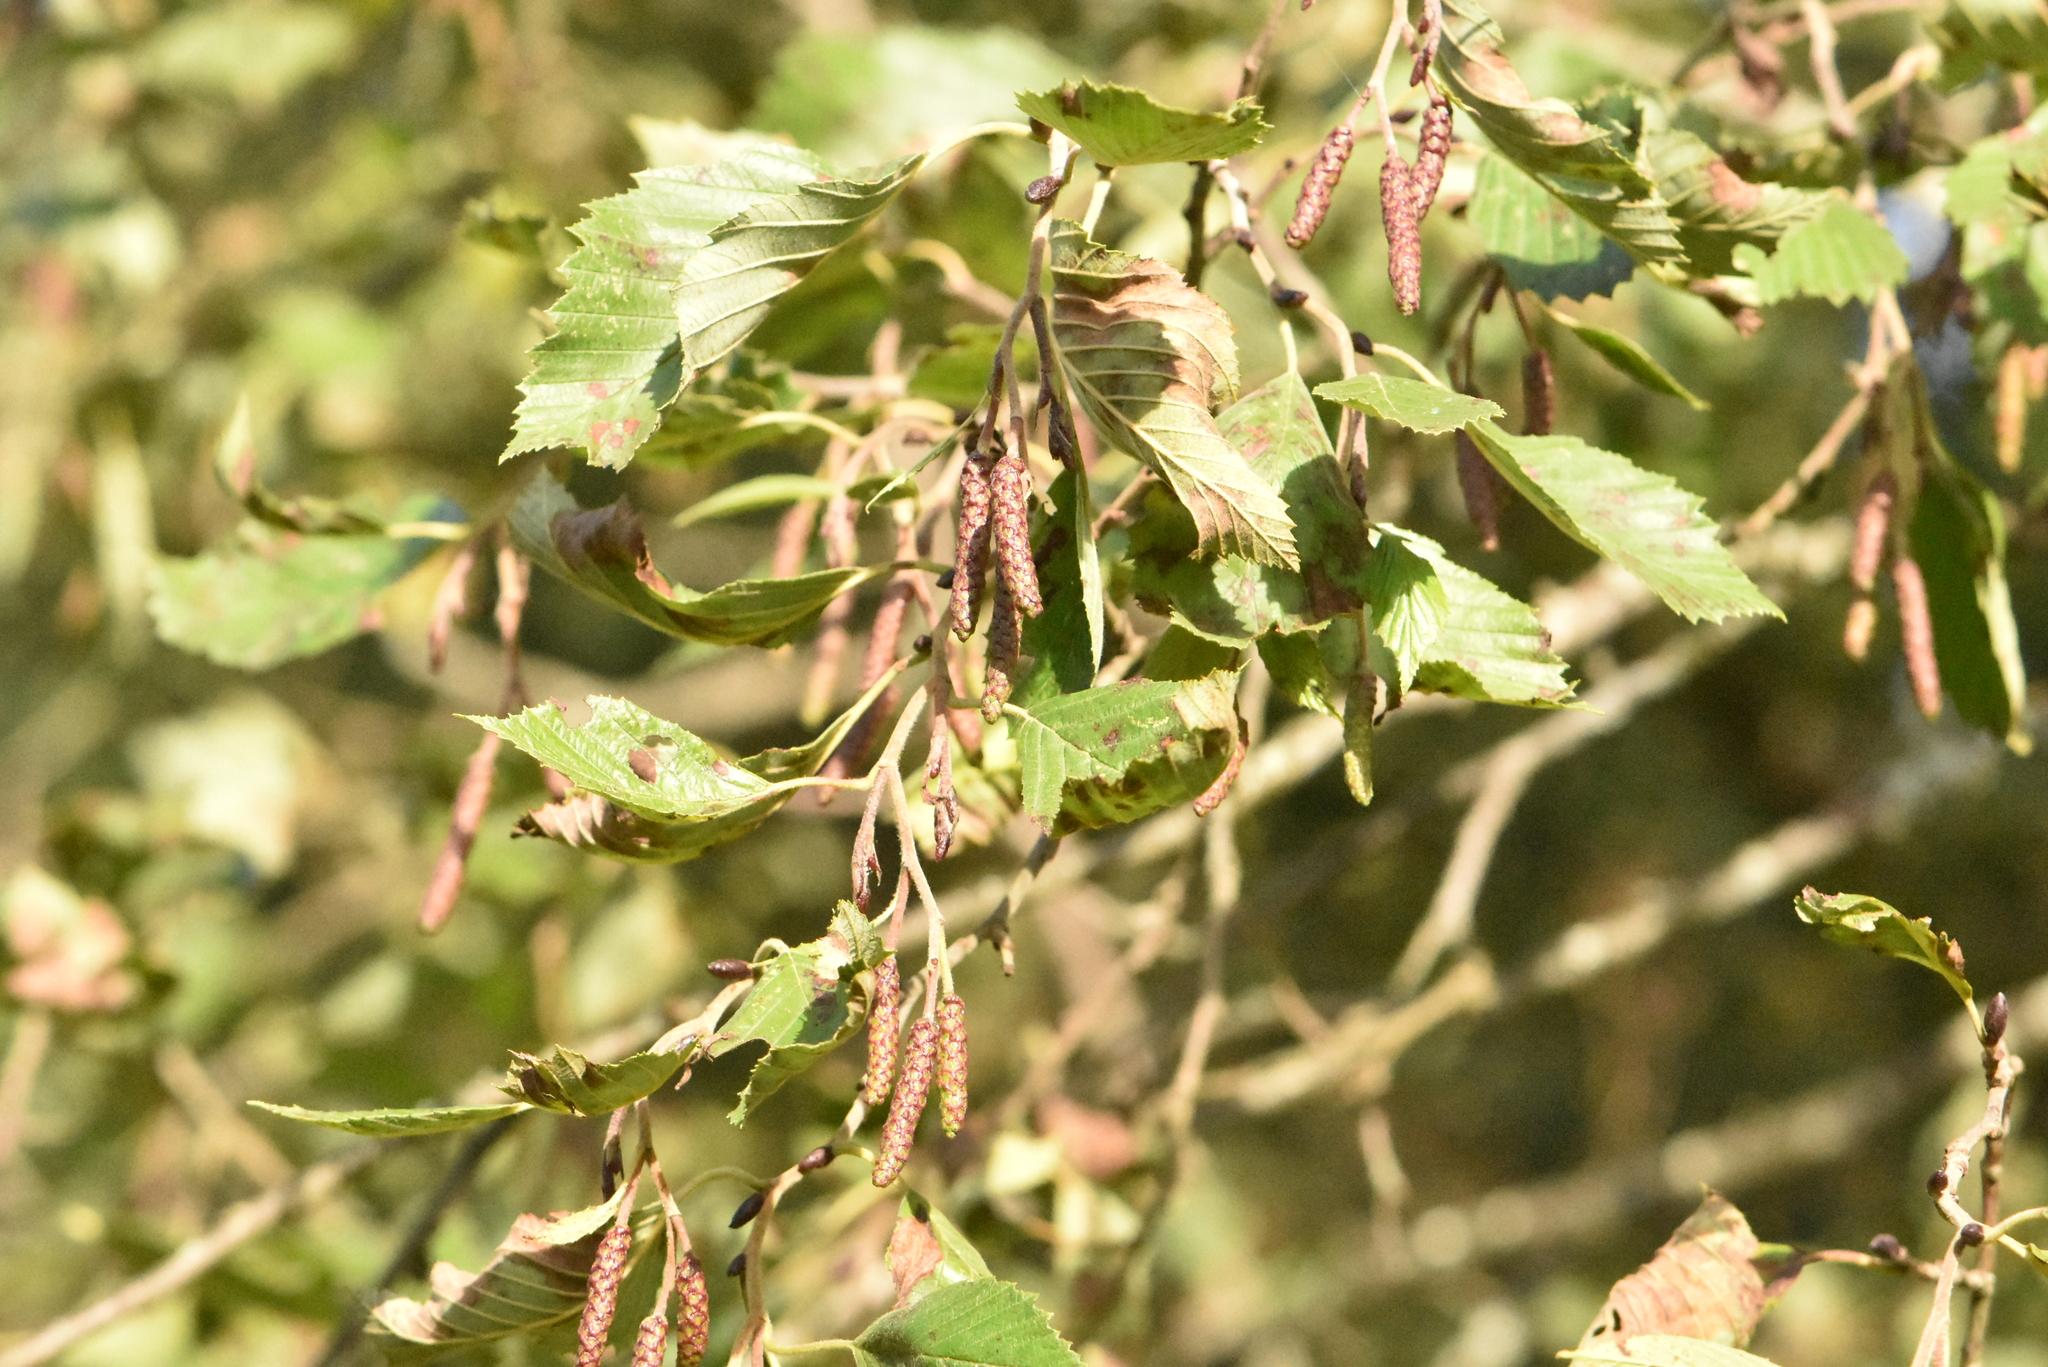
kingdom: Plantae
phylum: Tracheophyta
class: Magnoliopsida
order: Fagales
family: Betulaceae
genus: Alnus
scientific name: Alnus incana
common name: Grey alder
